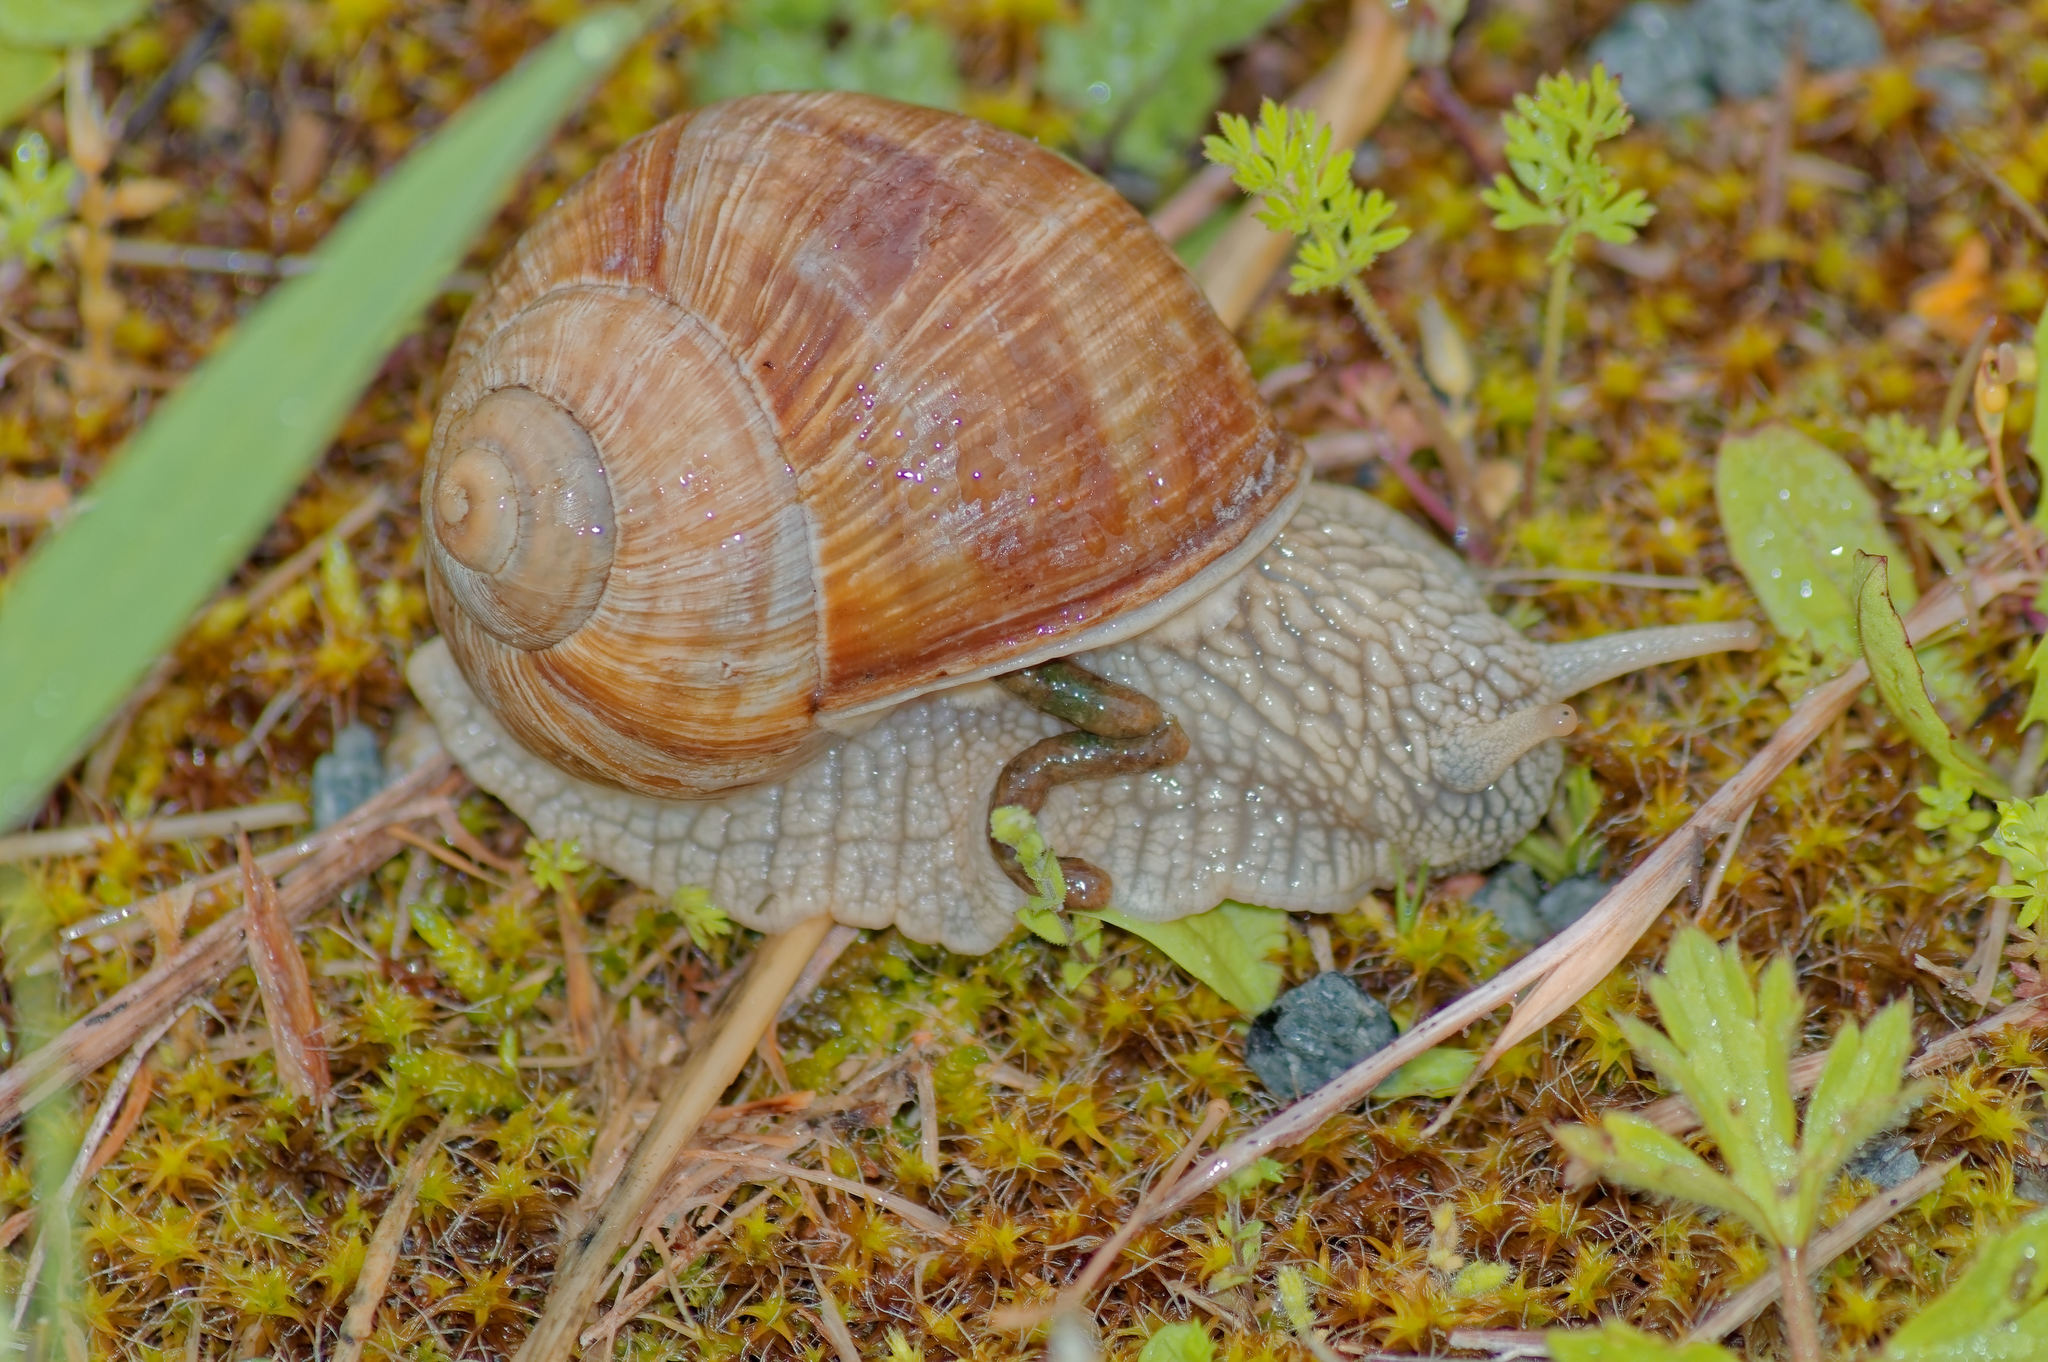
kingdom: Animalia
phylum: Mollusca
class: Gastropoda
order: Stylommatophora
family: Helicidae
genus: Helix
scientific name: Helix pomatia
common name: Roman snail
